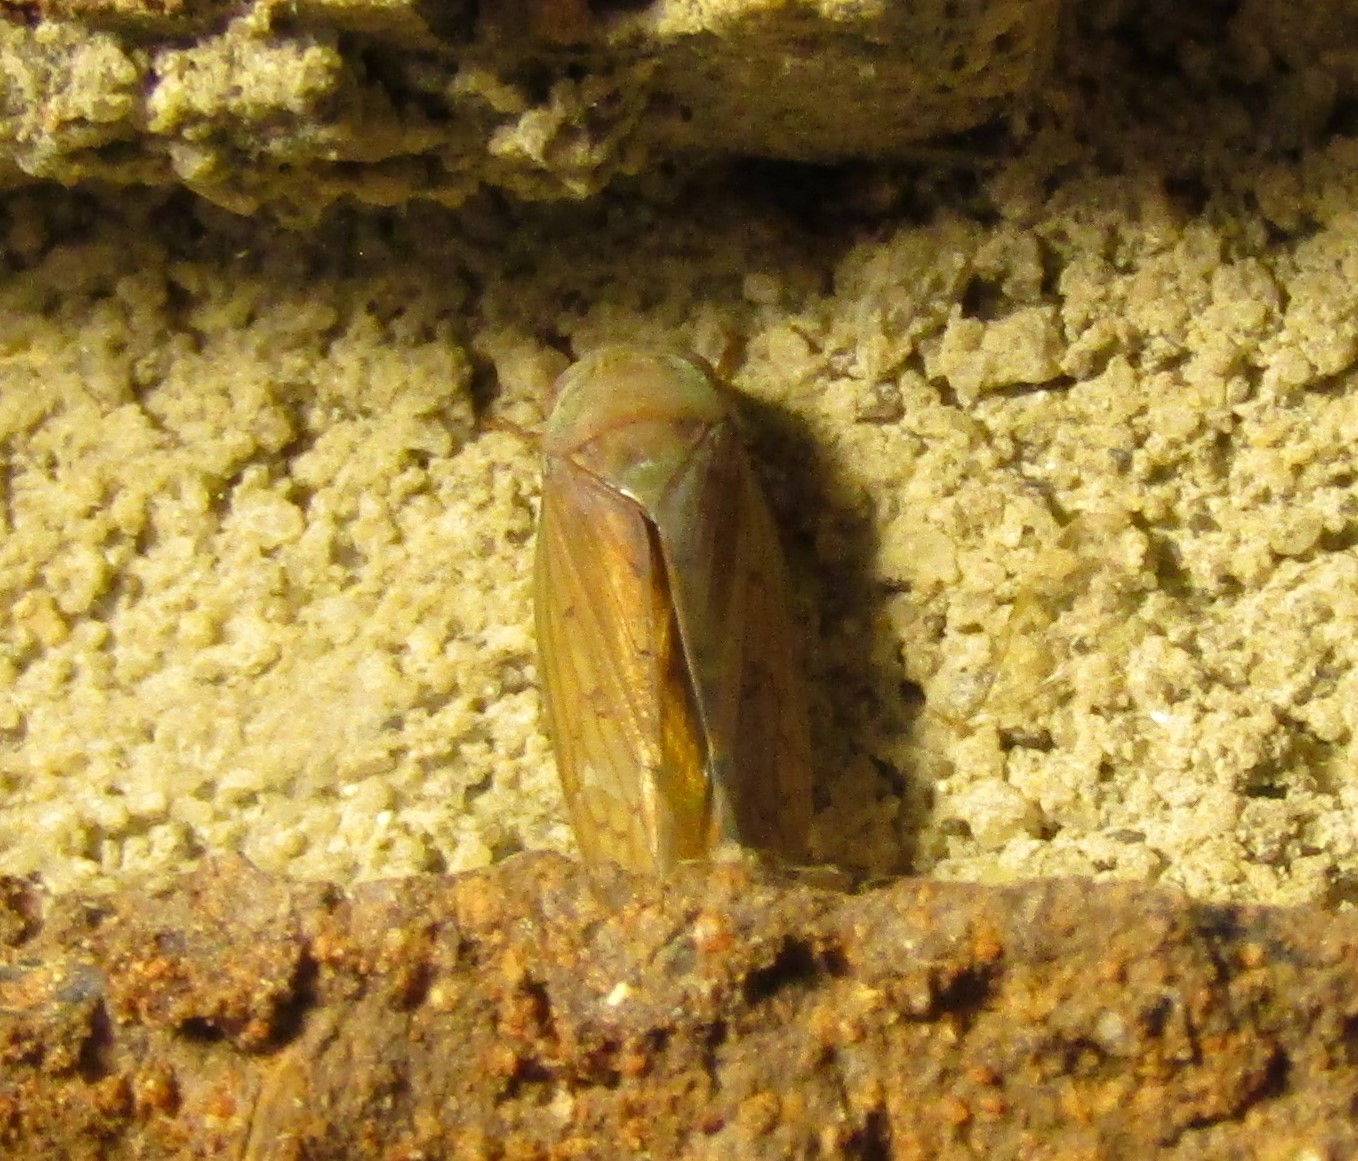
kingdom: Animalia
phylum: Arthropoda
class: Insecta
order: Hemiptera
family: Cicadellidae
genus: Polana
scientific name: Polana quadrinotata
